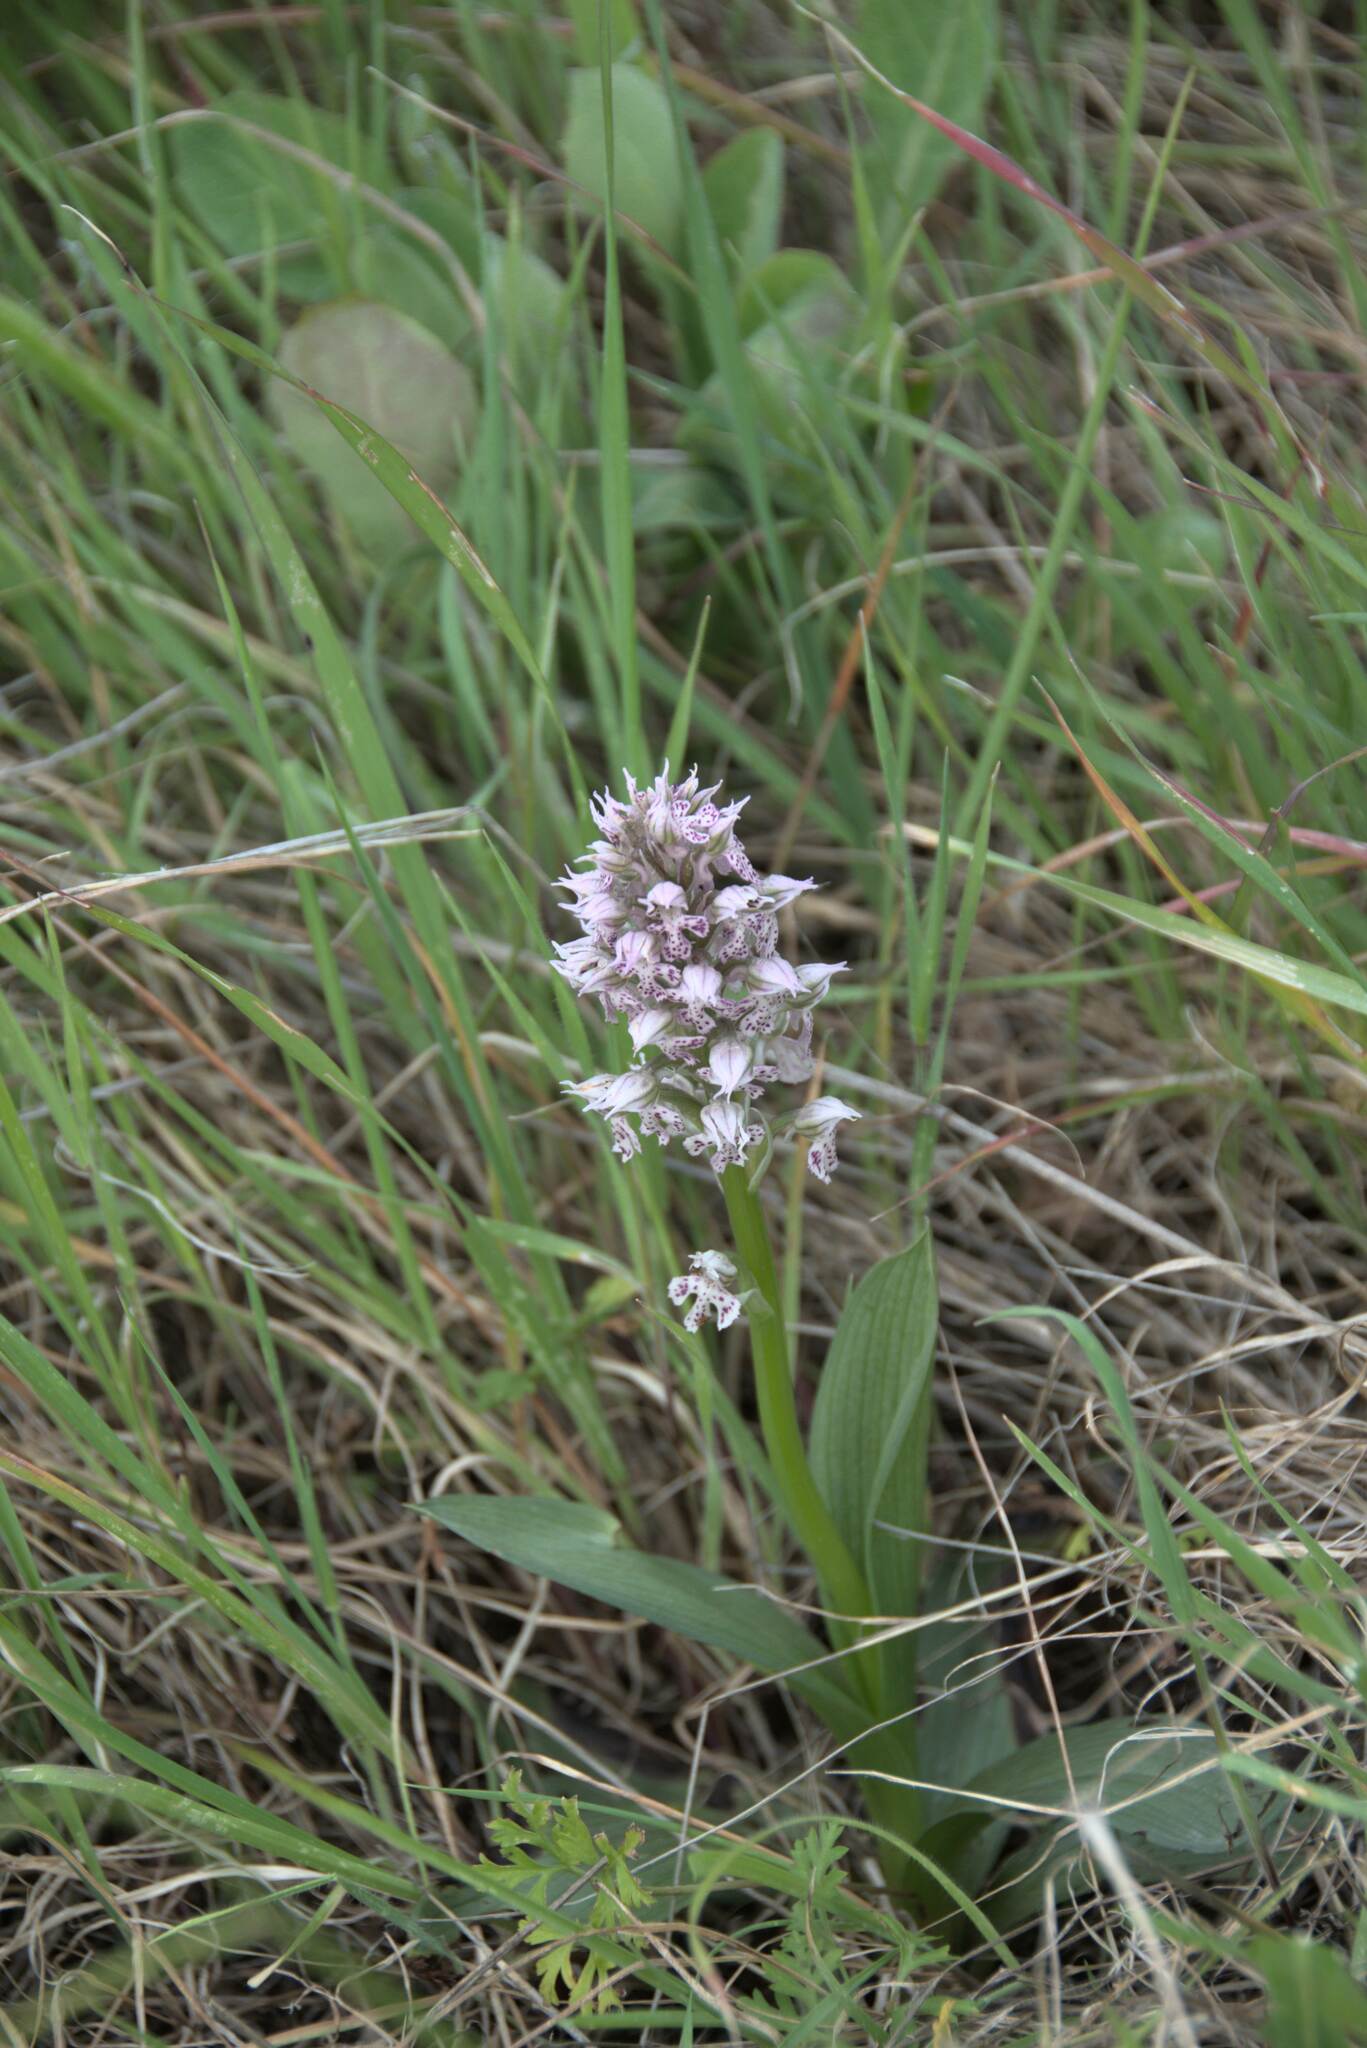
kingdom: Plantae
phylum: Tracheophyta
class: Liliopsida
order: Asparagales
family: Orchidaceae
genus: Neotinea
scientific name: Neotinea lactea
